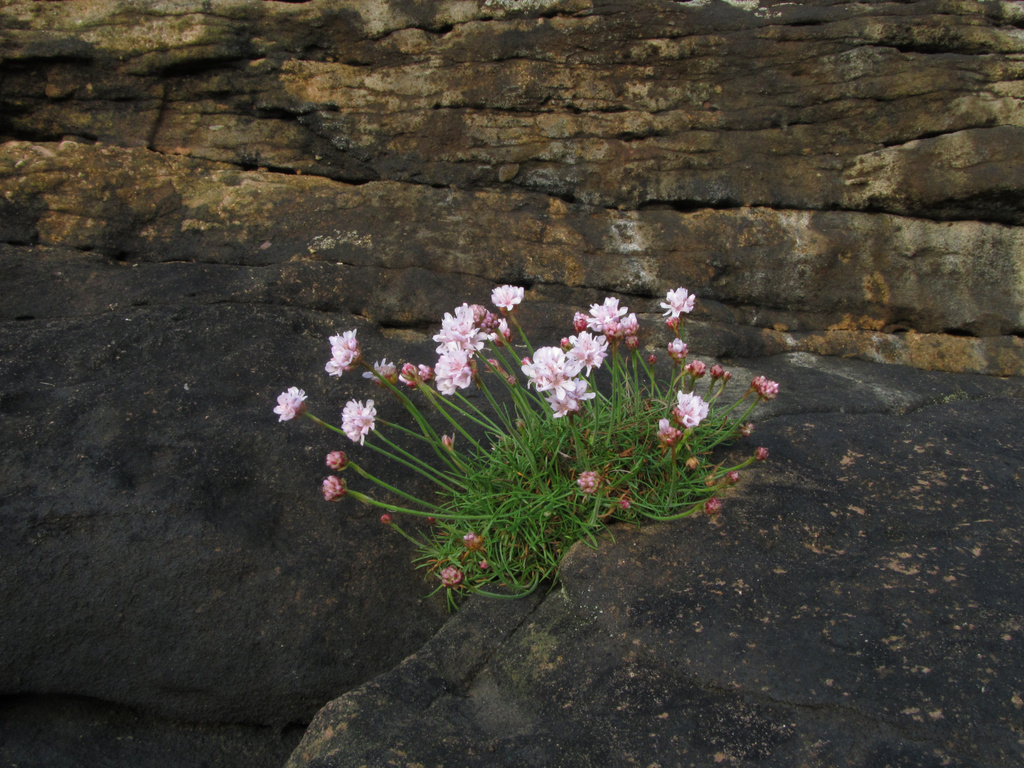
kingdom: Plantae
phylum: Tracheophyta
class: Magnoliopsida
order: Caryophyllales
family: Plumbaginaceae
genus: Armeria
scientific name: Armeria maritima
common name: Thrift
